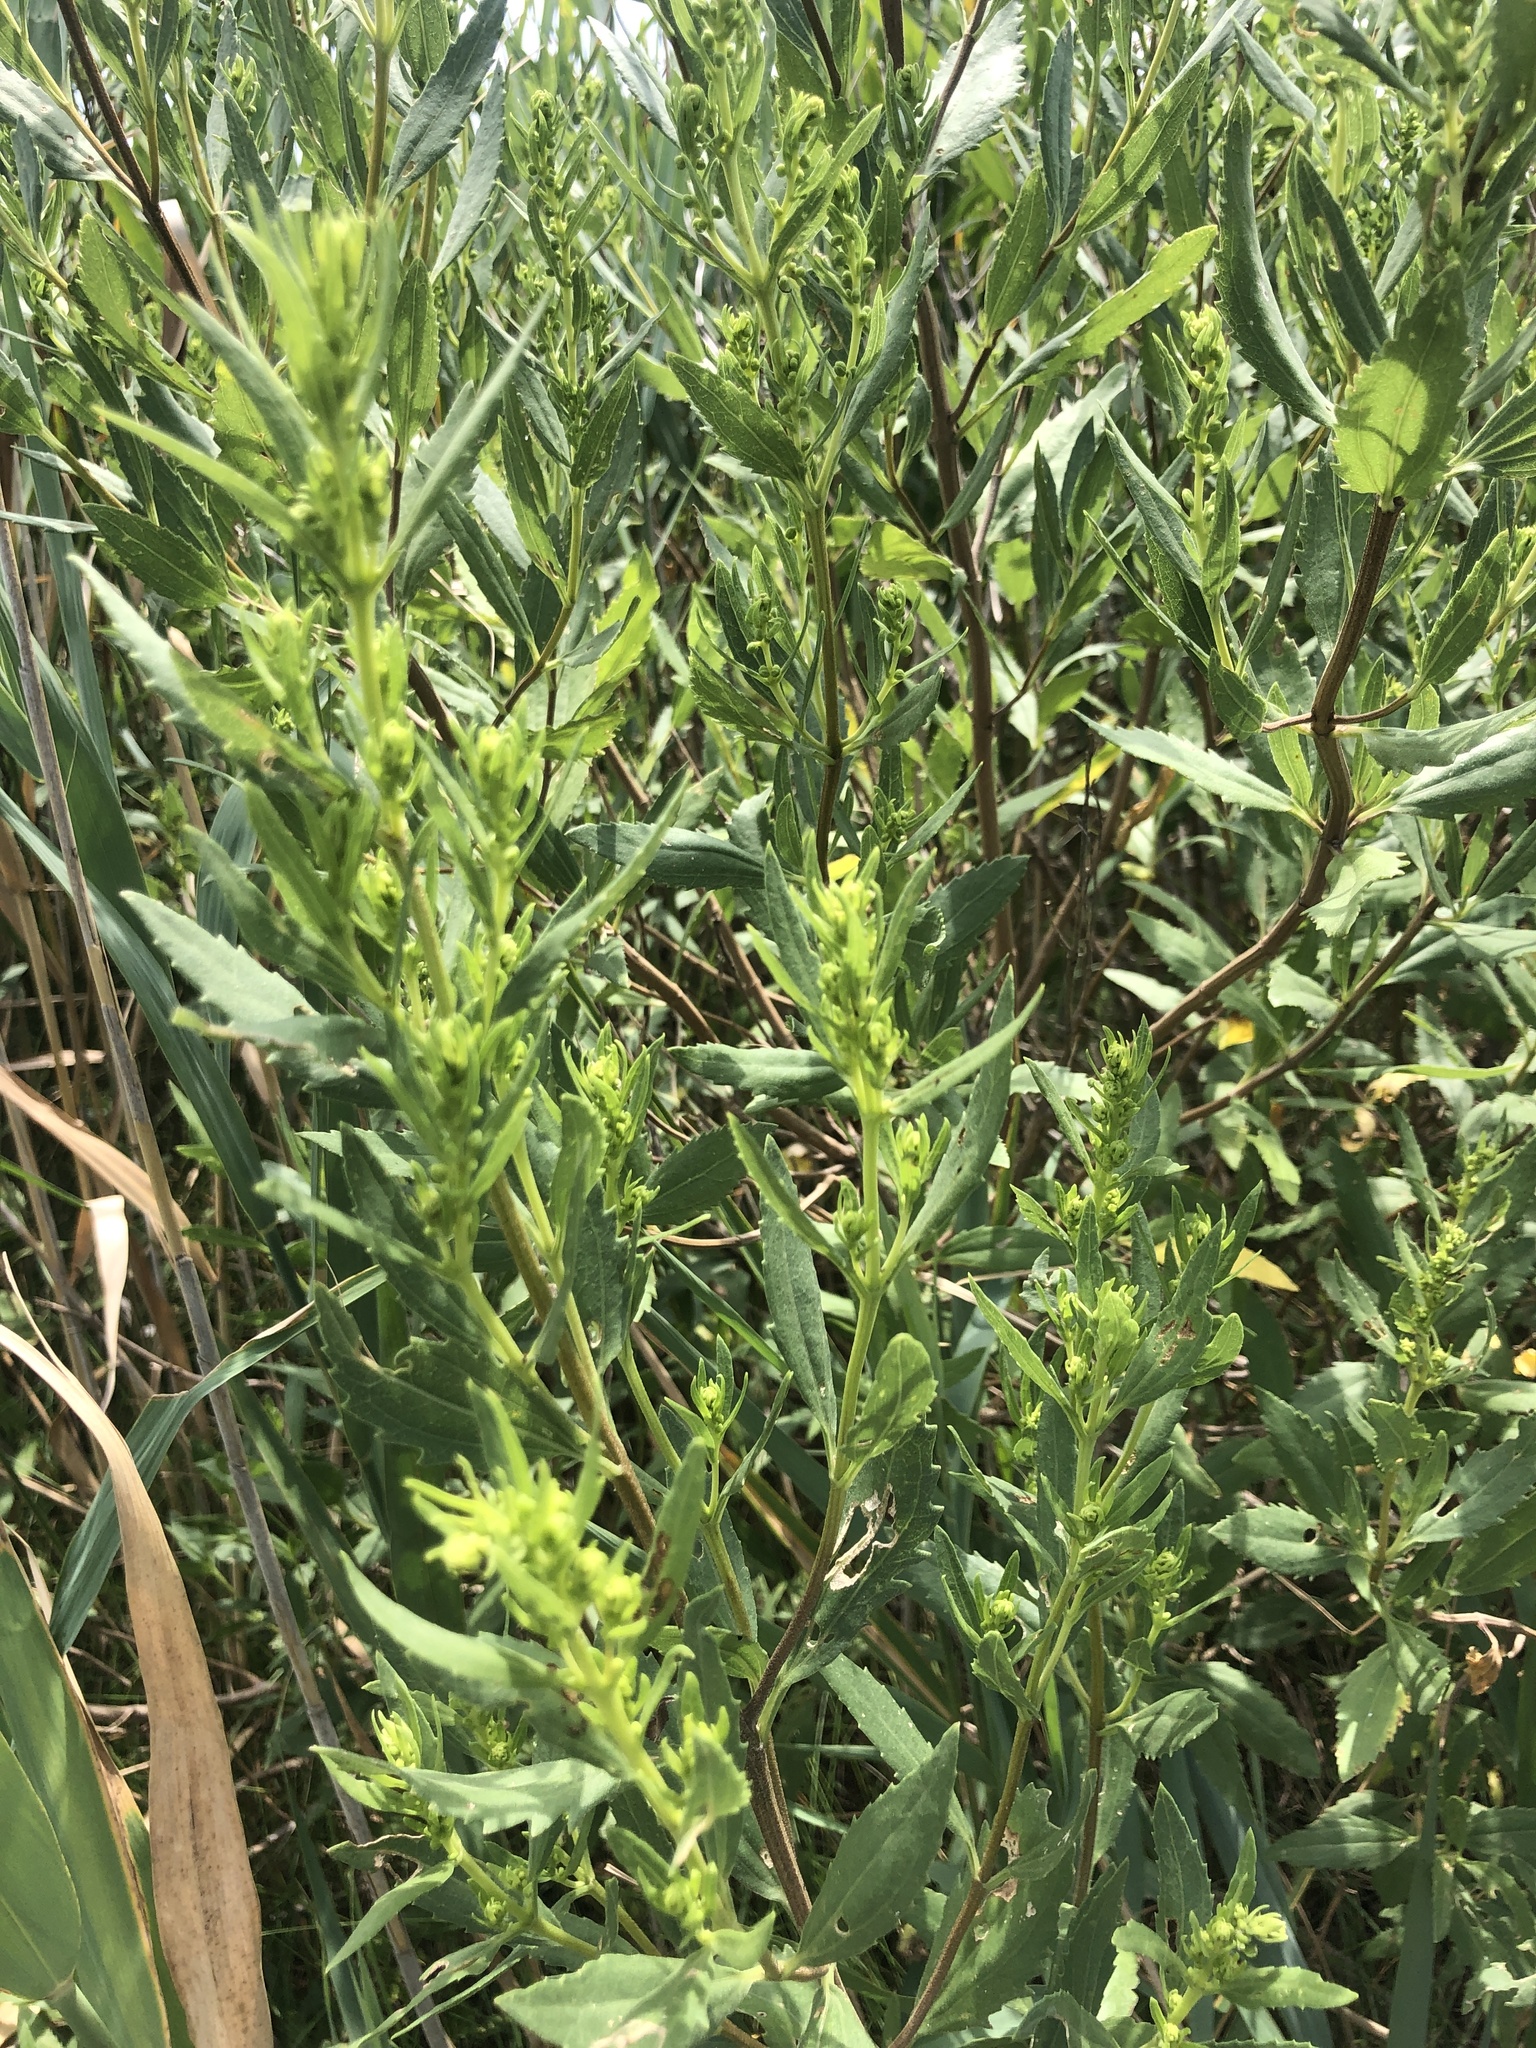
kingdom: Plantae
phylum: Tracheophyta
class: Magnoliopsida
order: Asterales
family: Asteraceae
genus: Iva
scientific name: Iva frutescens
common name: Big-leaved marsh-elder
